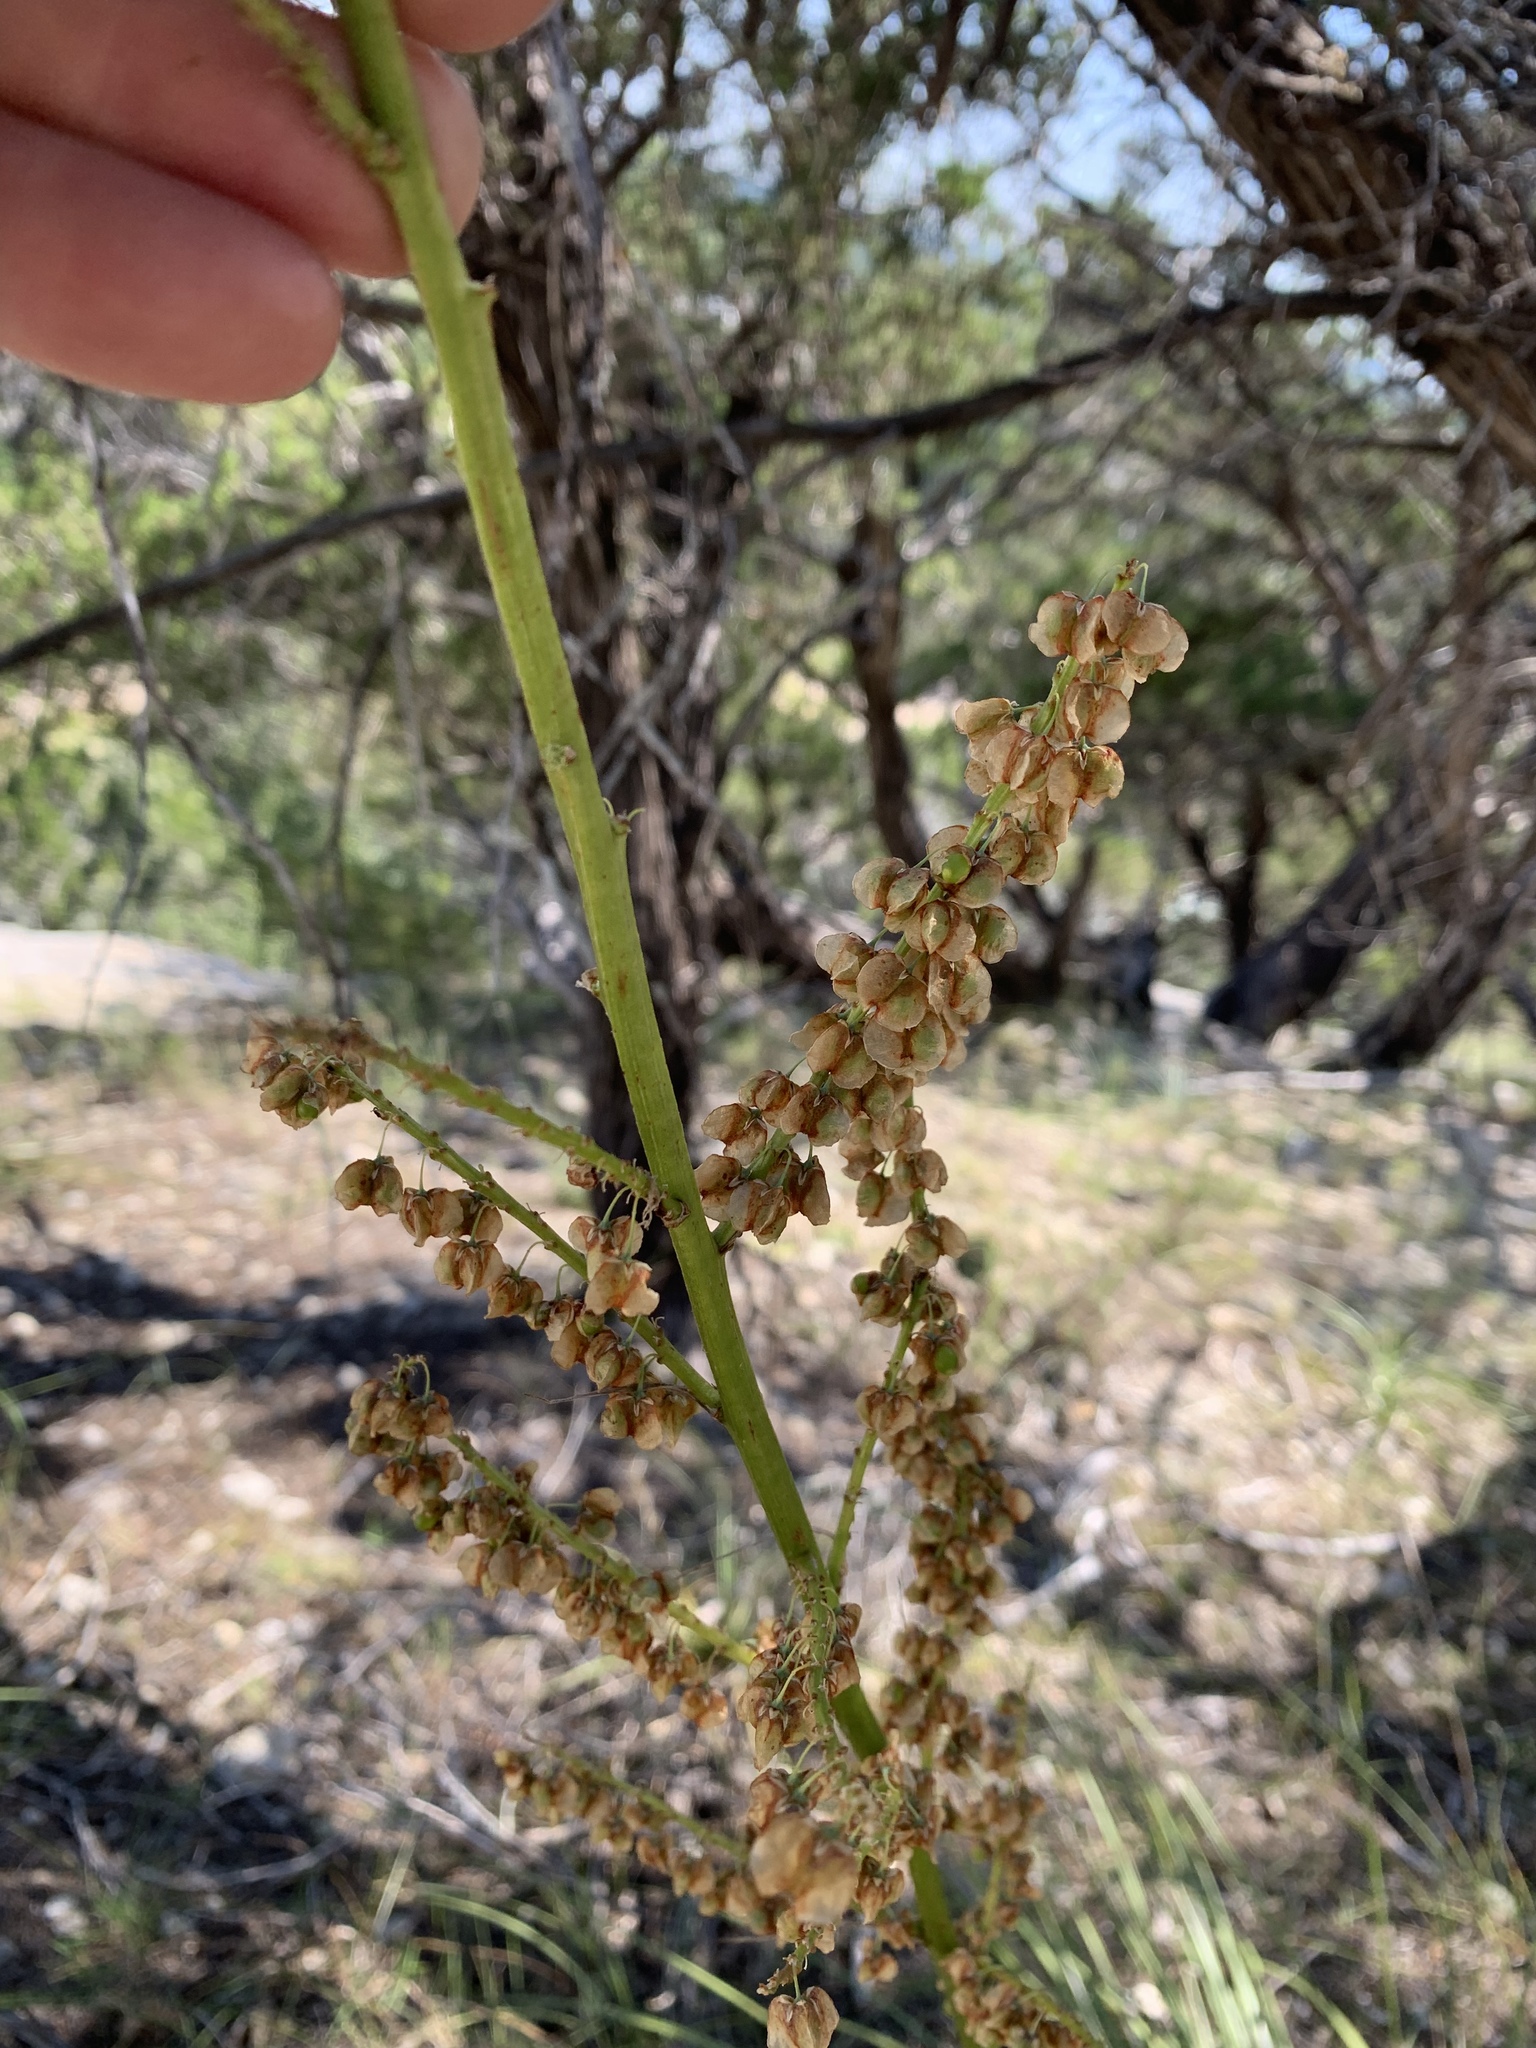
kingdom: Plantae
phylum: Tracheophyta
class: Liliopsida
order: Asparagales
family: Asparagaceae
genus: Nolina
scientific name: Nolina lindheimeriana
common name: Lindheimer's bear-grass
